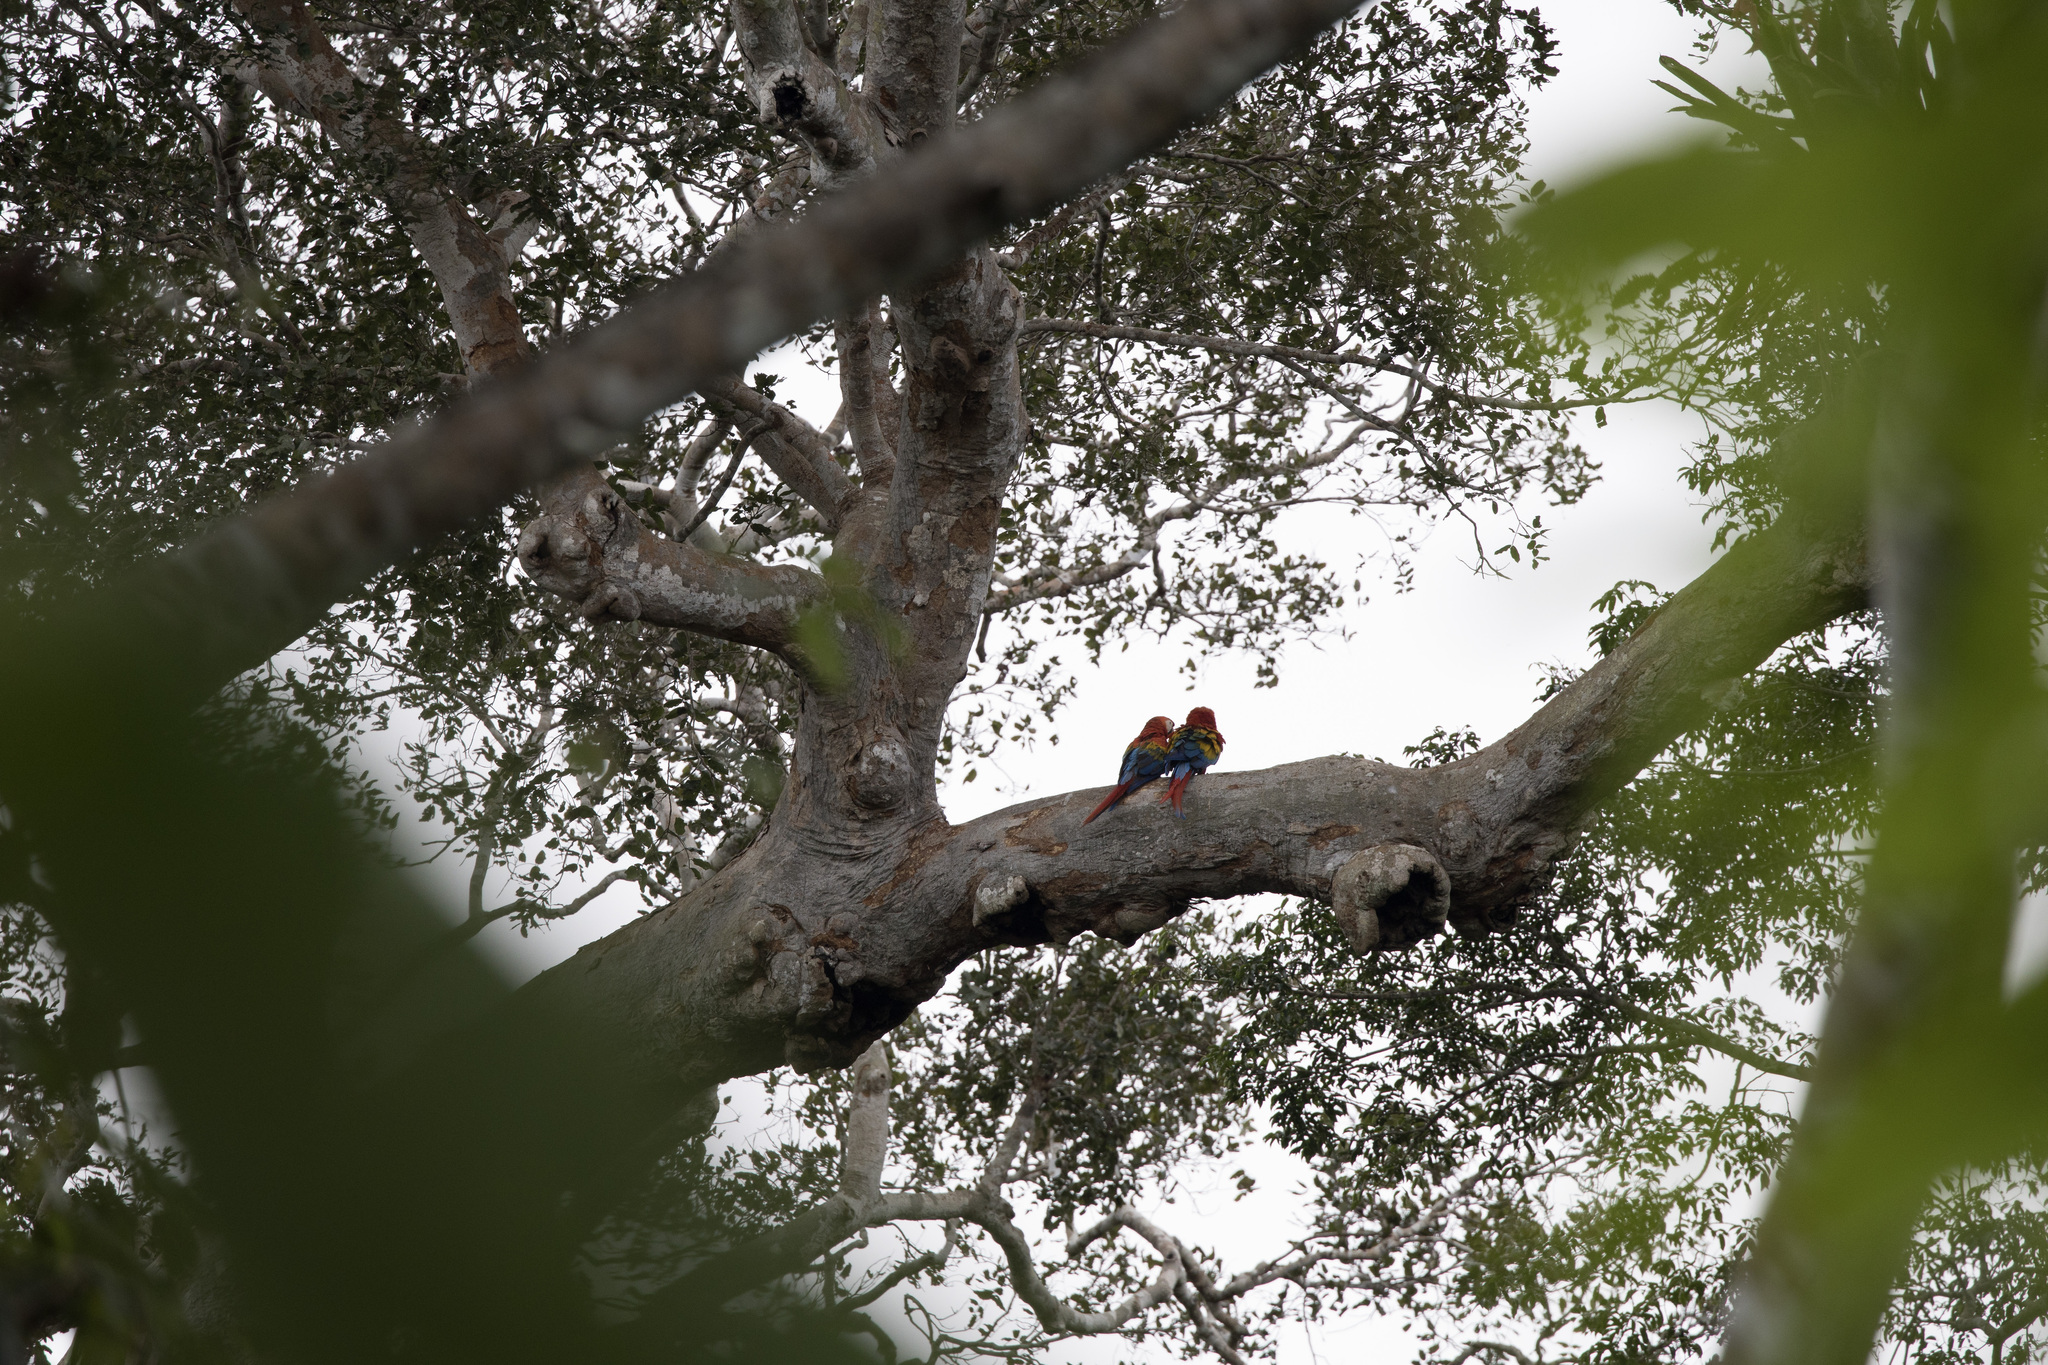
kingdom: Animalia
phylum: Chordata
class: Aves
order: Psittaciformes
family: Psittacidae
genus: Ara
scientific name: Ara macao
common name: Scarlet macaw
